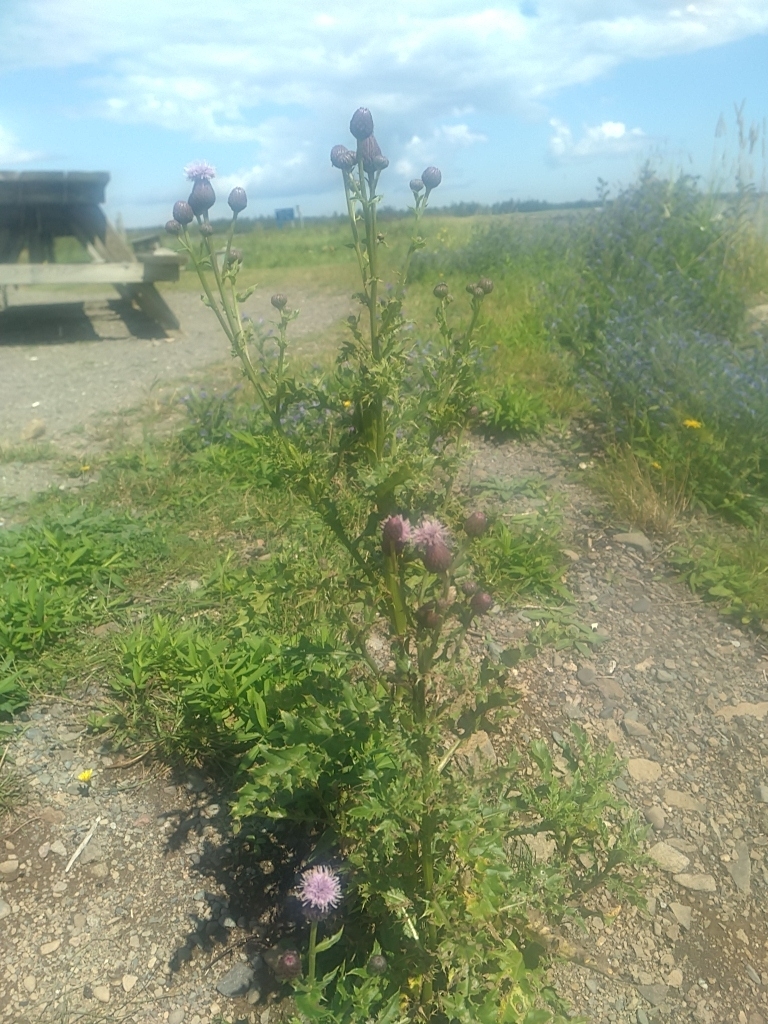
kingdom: Plantae
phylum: Tracheophyta
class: Magnoliopsida
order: Asterales
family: Asteraceae
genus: Cirsium
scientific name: Cirsium arvense
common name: Creeping thistle
